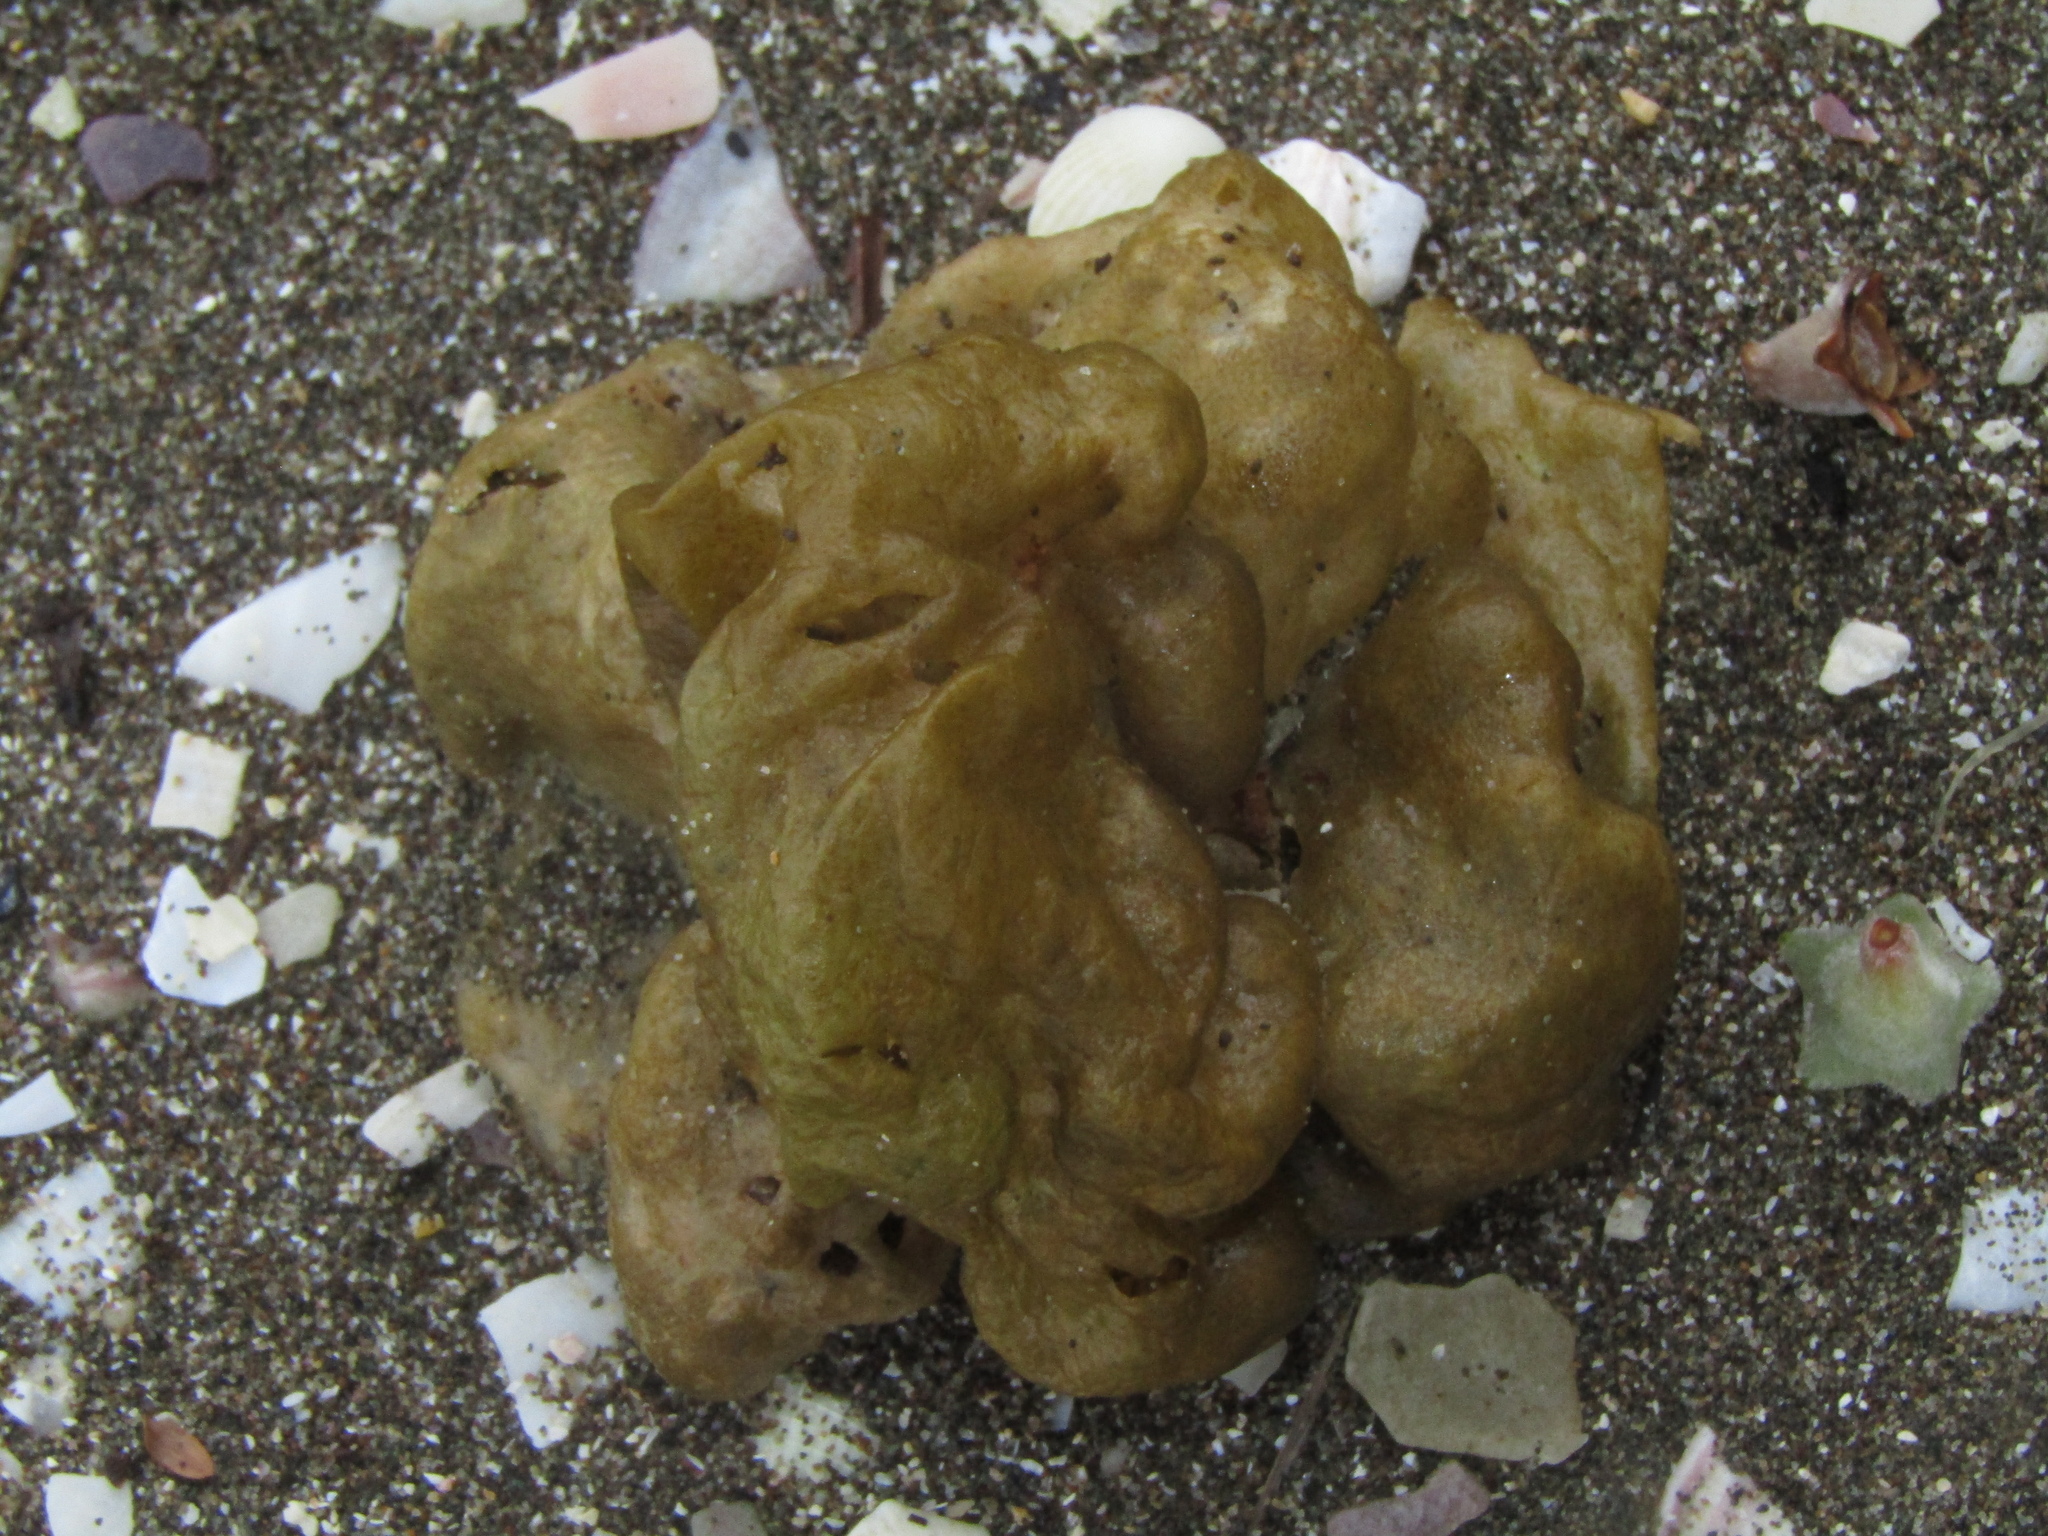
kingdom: Chromista
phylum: Ochrophyta
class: Phaeophyceae
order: Scytosiphonales
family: Scytosiphonaceae
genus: Colpomenia
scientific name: Colpomenia sinuosa
